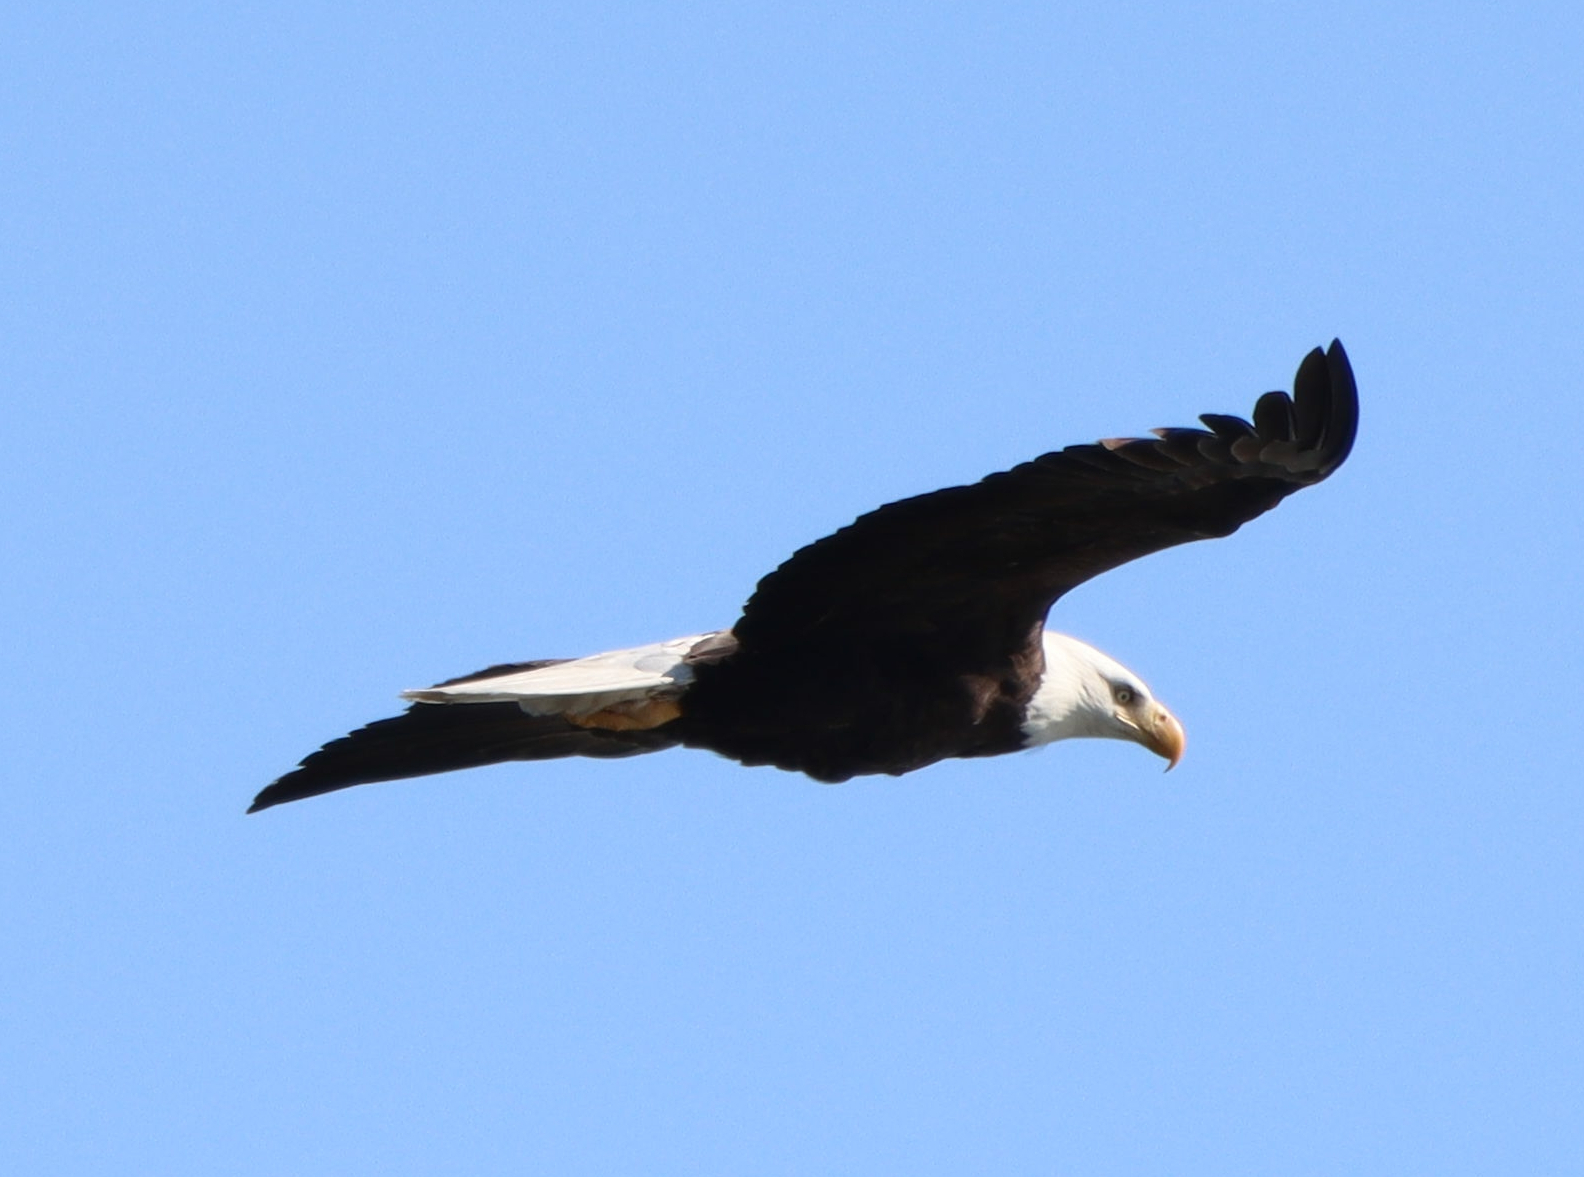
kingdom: Animalia
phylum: Chordata
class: Aves
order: Accipitriformes
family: Accipitridae
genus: Haliaeetus
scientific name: Haliaeetus leucocephalus
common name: Bald eagle
